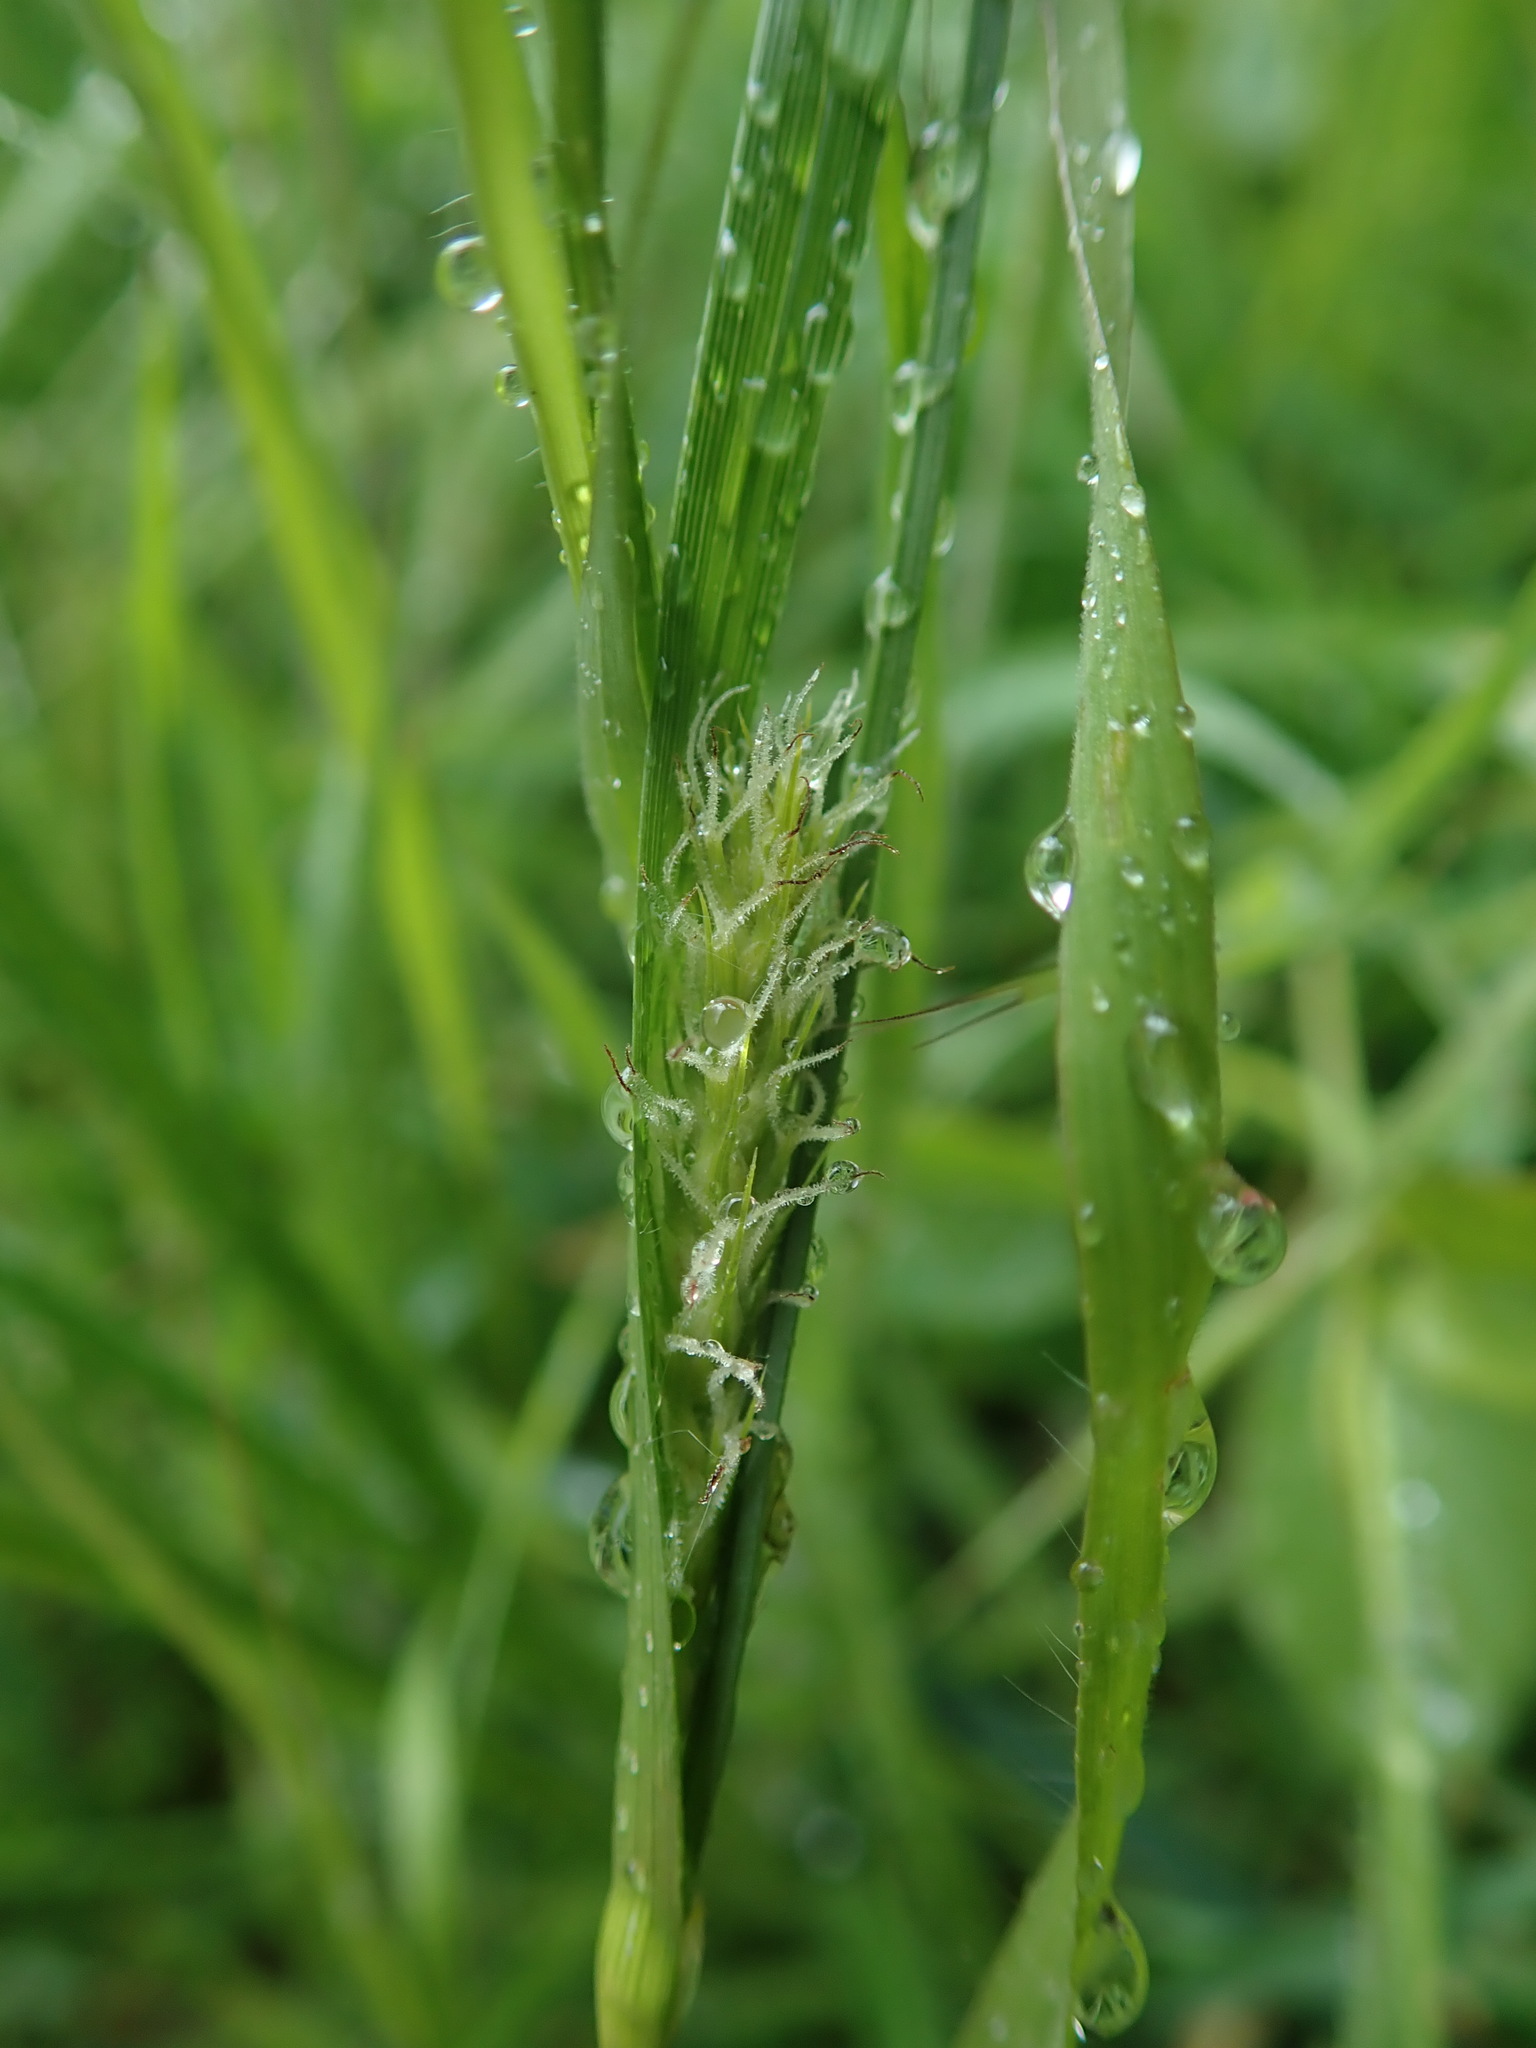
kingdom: Plantae
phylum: Tracheophyta
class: Liliopsida
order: Poales
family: Cyperaceae
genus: Carex
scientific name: Carex hirta
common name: Hairy sedge
